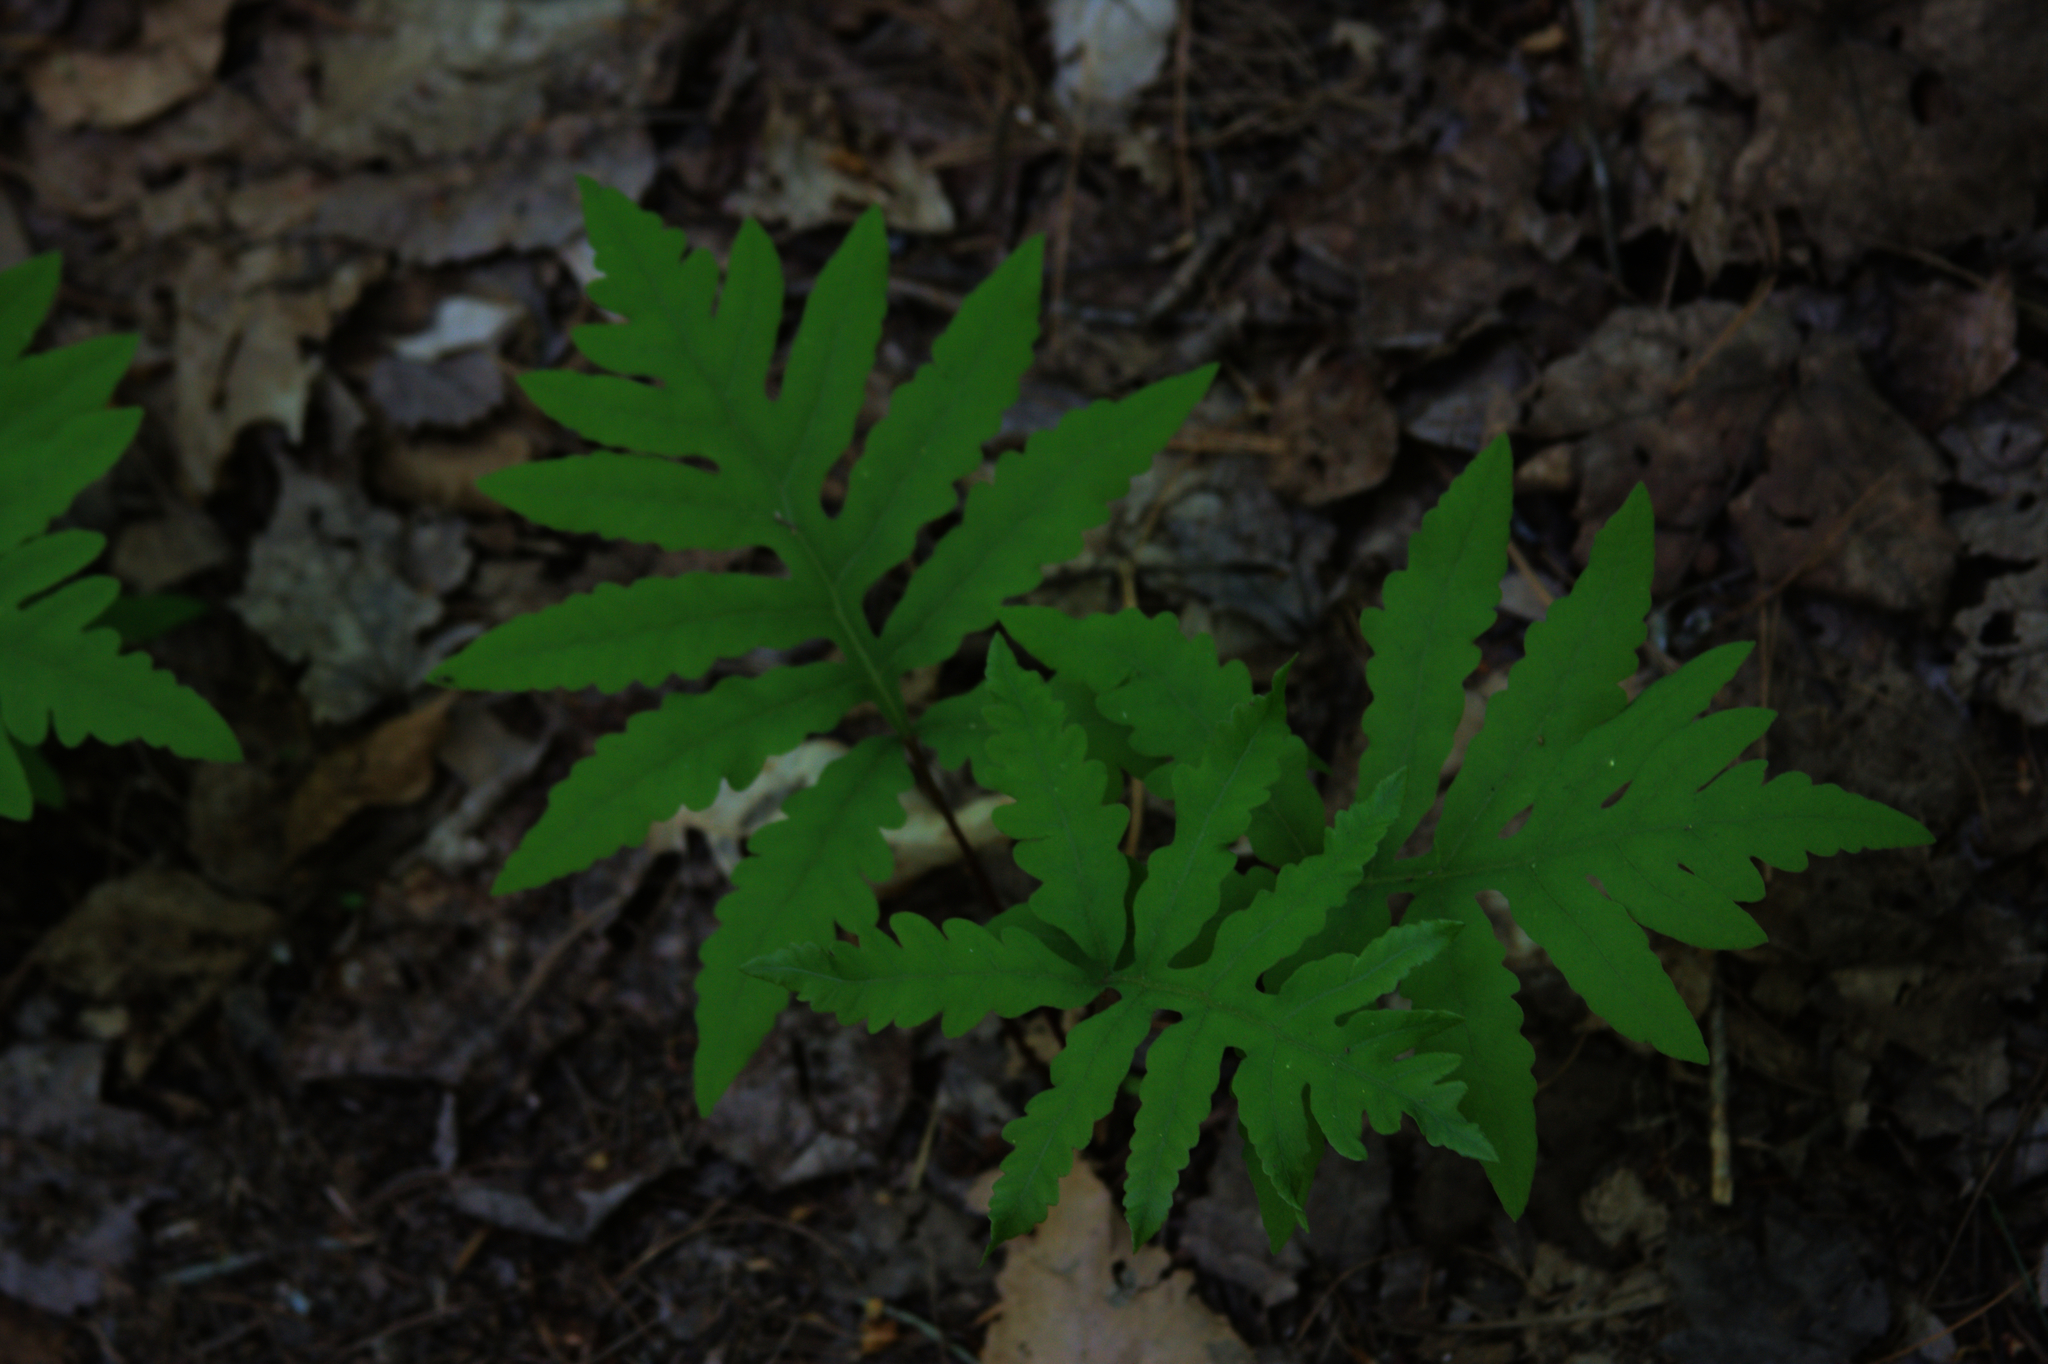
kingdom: Plantae
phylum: Tracheophyta
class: Polypodiopsida
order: Polypodiales
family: Onocleaceae
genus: Onoclea
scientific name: Onoclea sensibilis
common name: Sensitive fern
